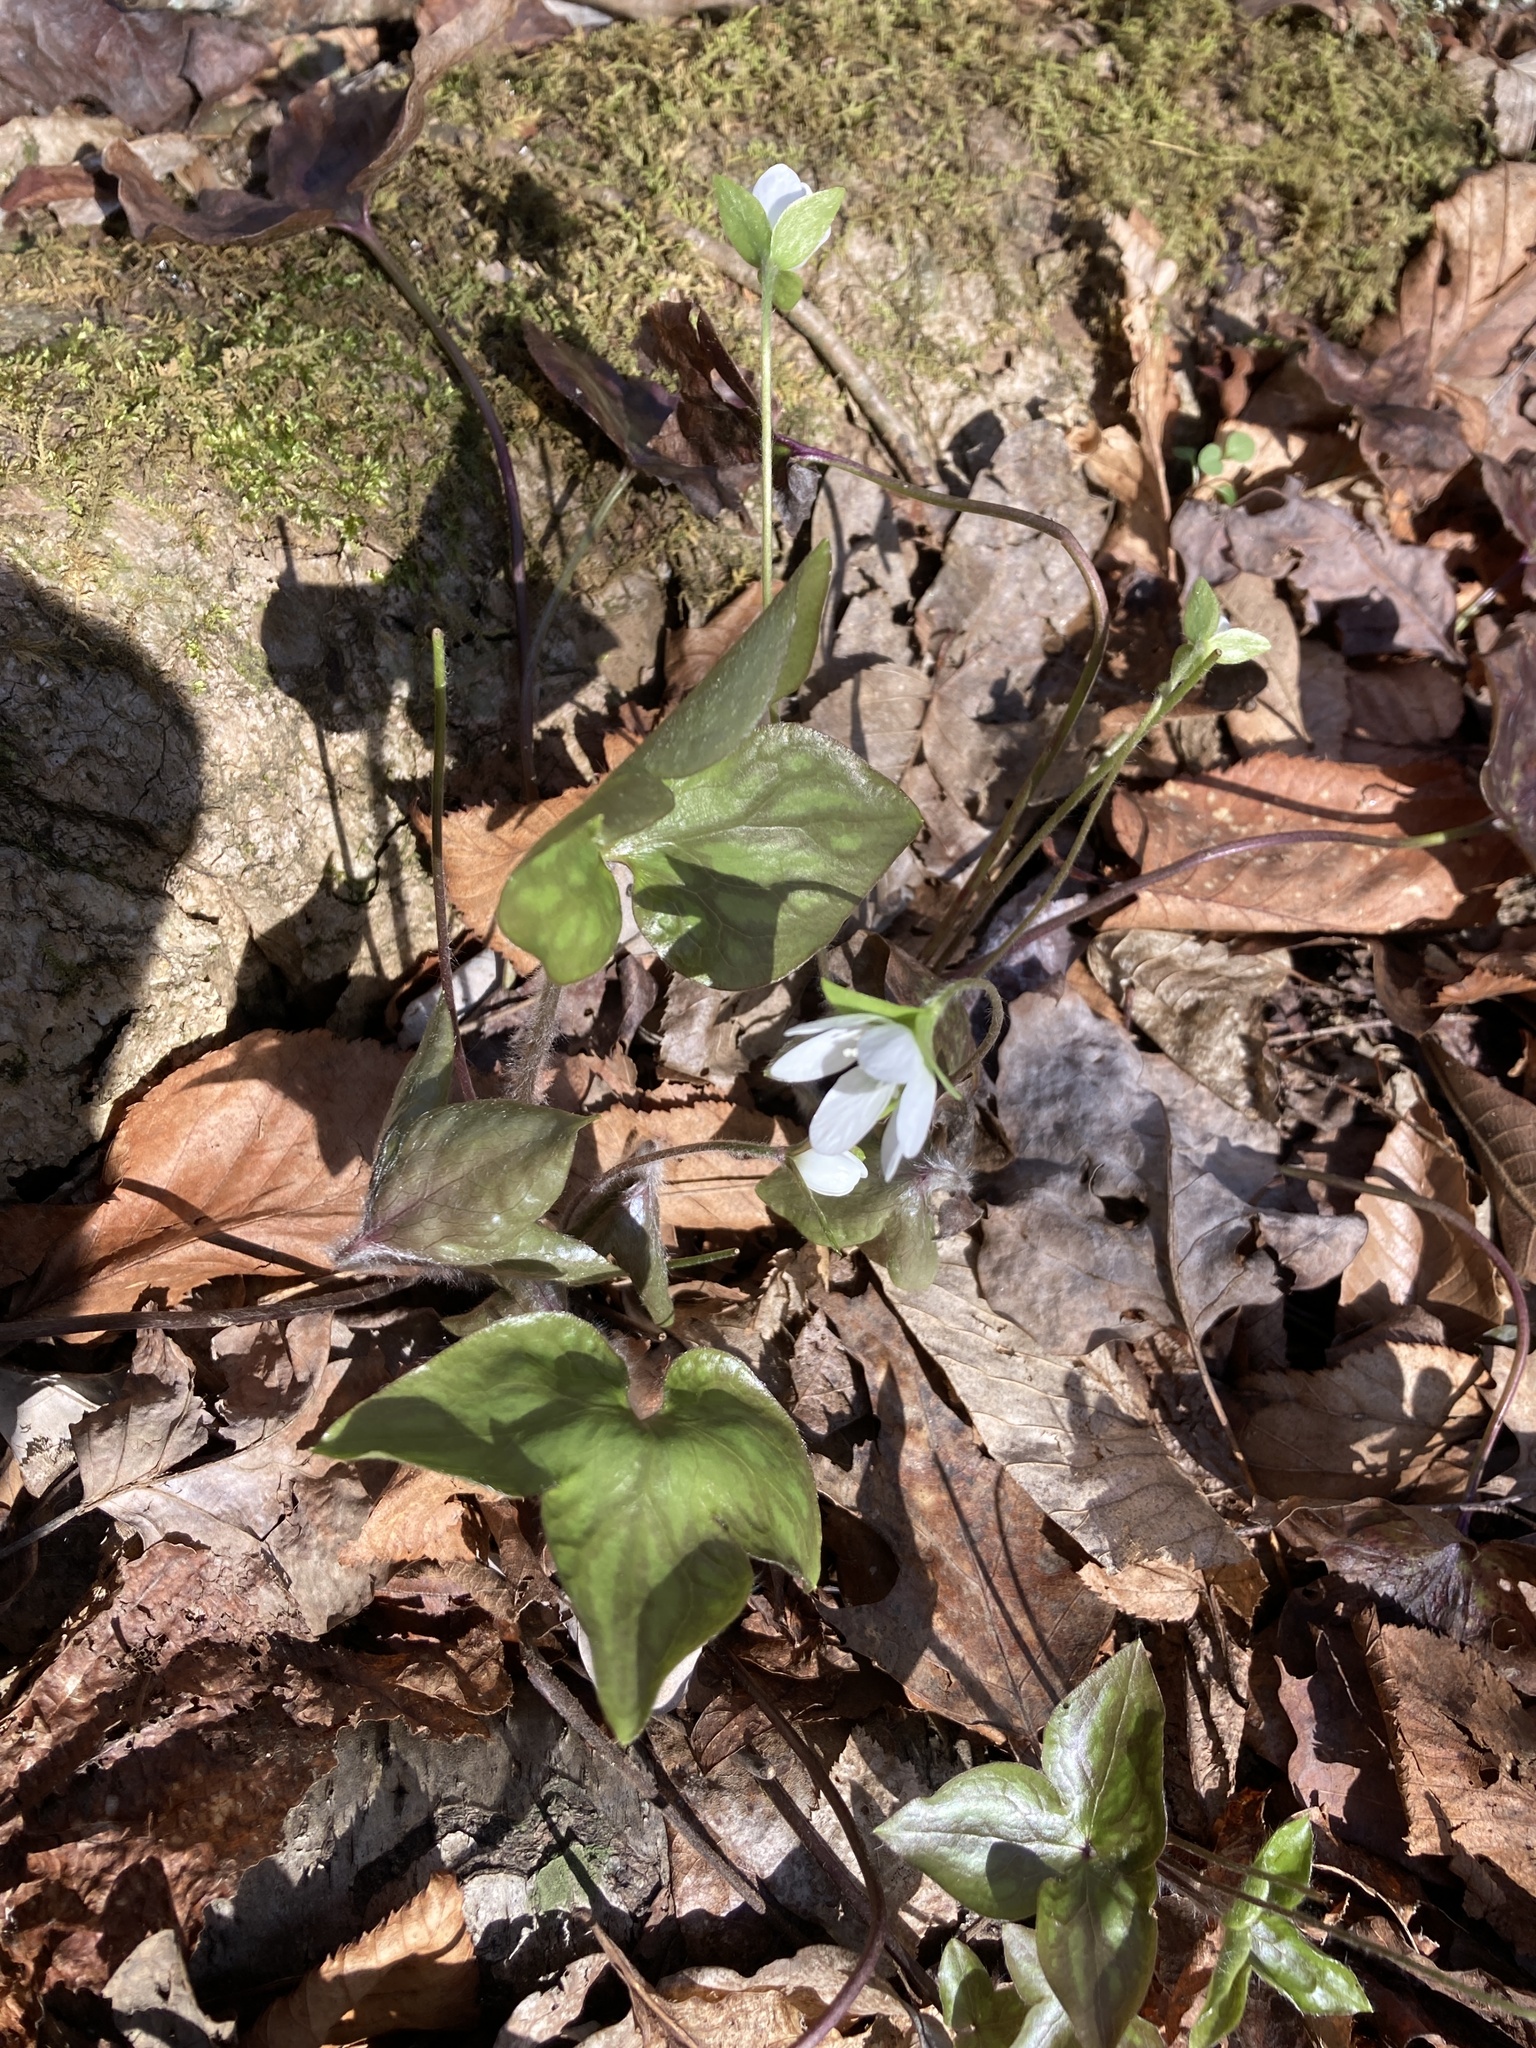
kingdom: Plantae
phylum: Tracheophyta
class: Magnoliopsida
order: Ranunculales
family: Ranunculaceae
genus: Hepatica
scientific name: Hepatica acutiloba
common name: Sharp-lobed hepatica
